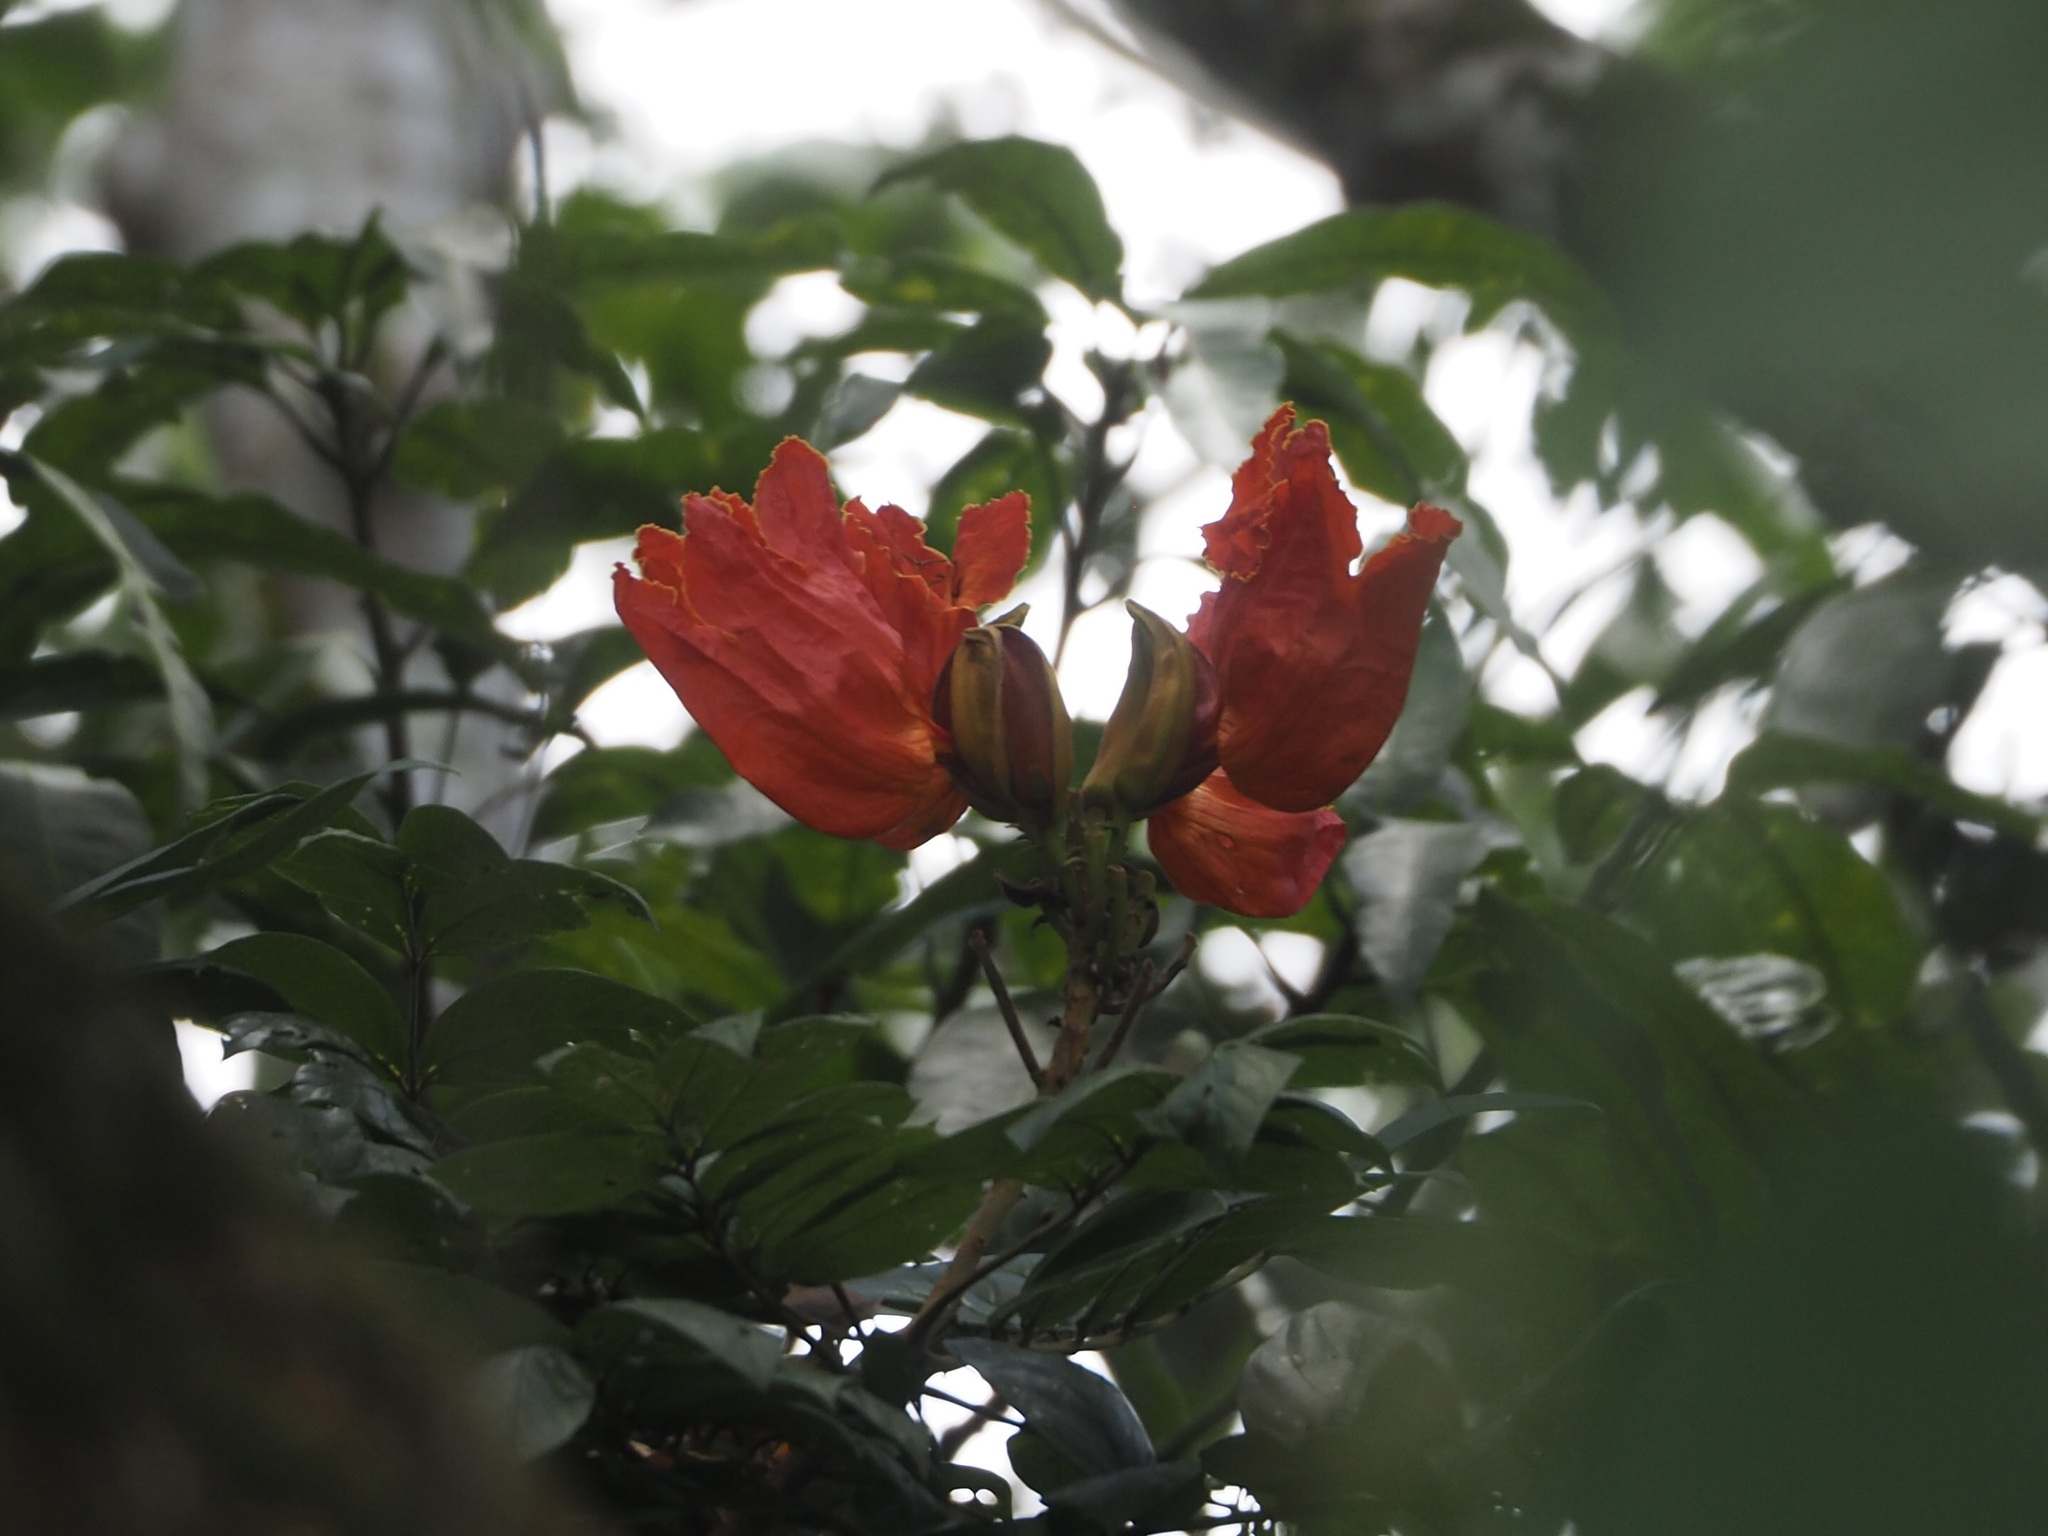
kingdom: Plantae
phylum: Tracheophyta
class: Magnoliopsida
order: Lamiales
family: Bignoniaceae
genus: Spathodea
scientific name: Spathodea campanulata
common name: African tuliptree
